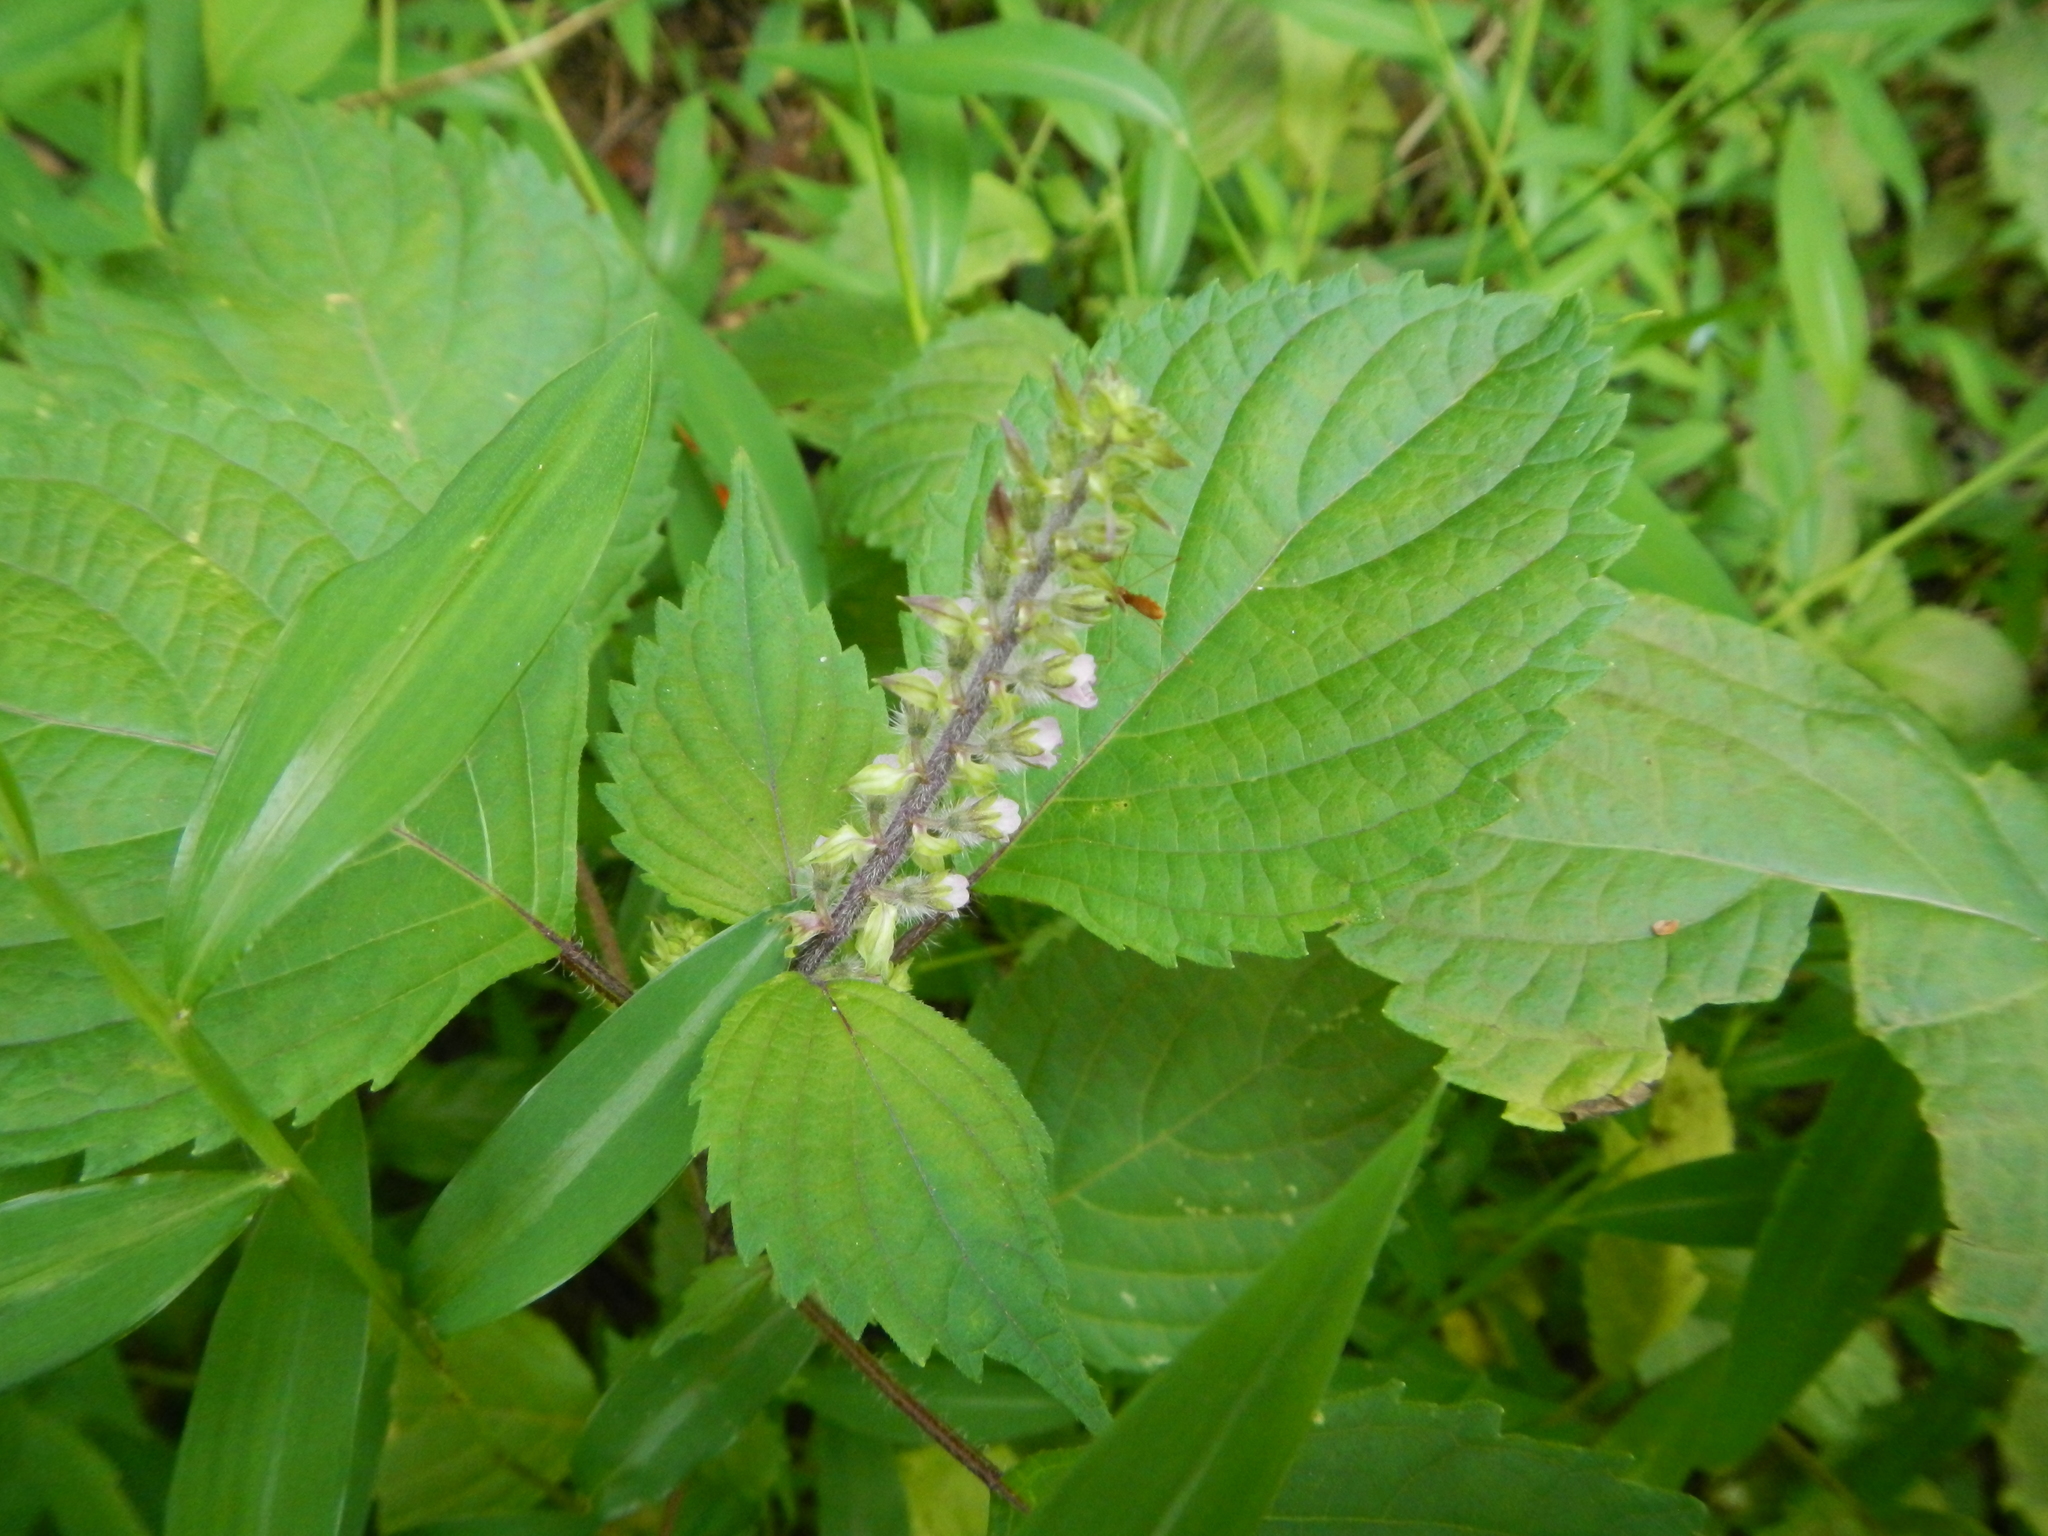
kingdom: Plantae
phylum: Tracheophyta
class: Magnoliopsida
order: Lamiales
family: Lamiaceae
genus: Perilla
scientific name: Perilla frutescens
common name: Perilla
